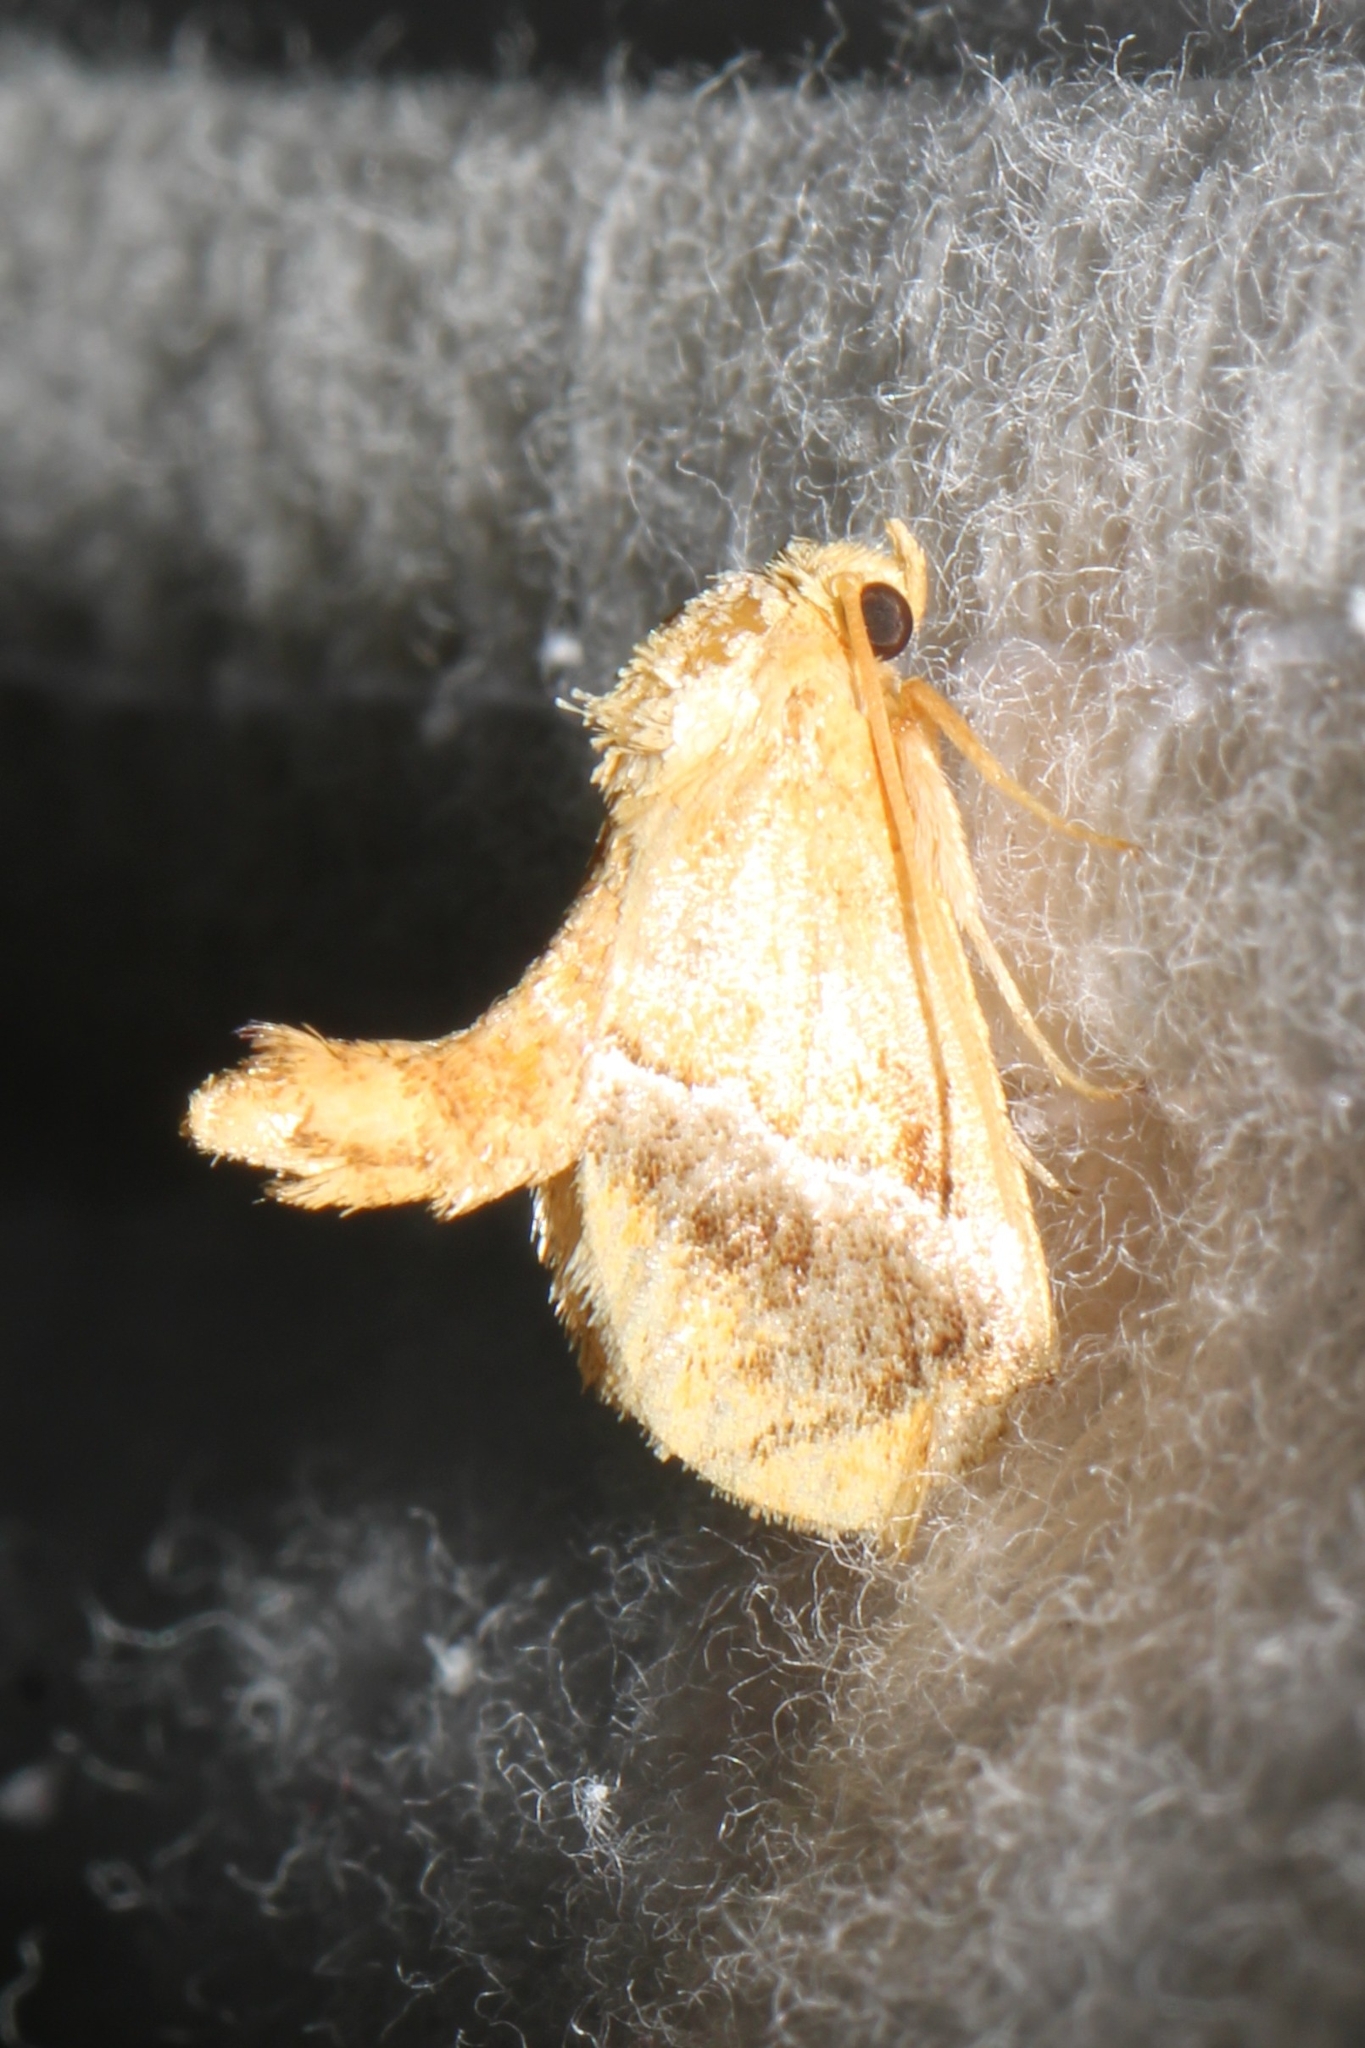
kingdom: Animalia
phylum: Arthropoda
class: Insecta
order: Lepidoptera
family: Limacodidae
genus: Lithacodes
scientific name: Lithacodes fasciola
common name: Yellow-shouldered slug moth
